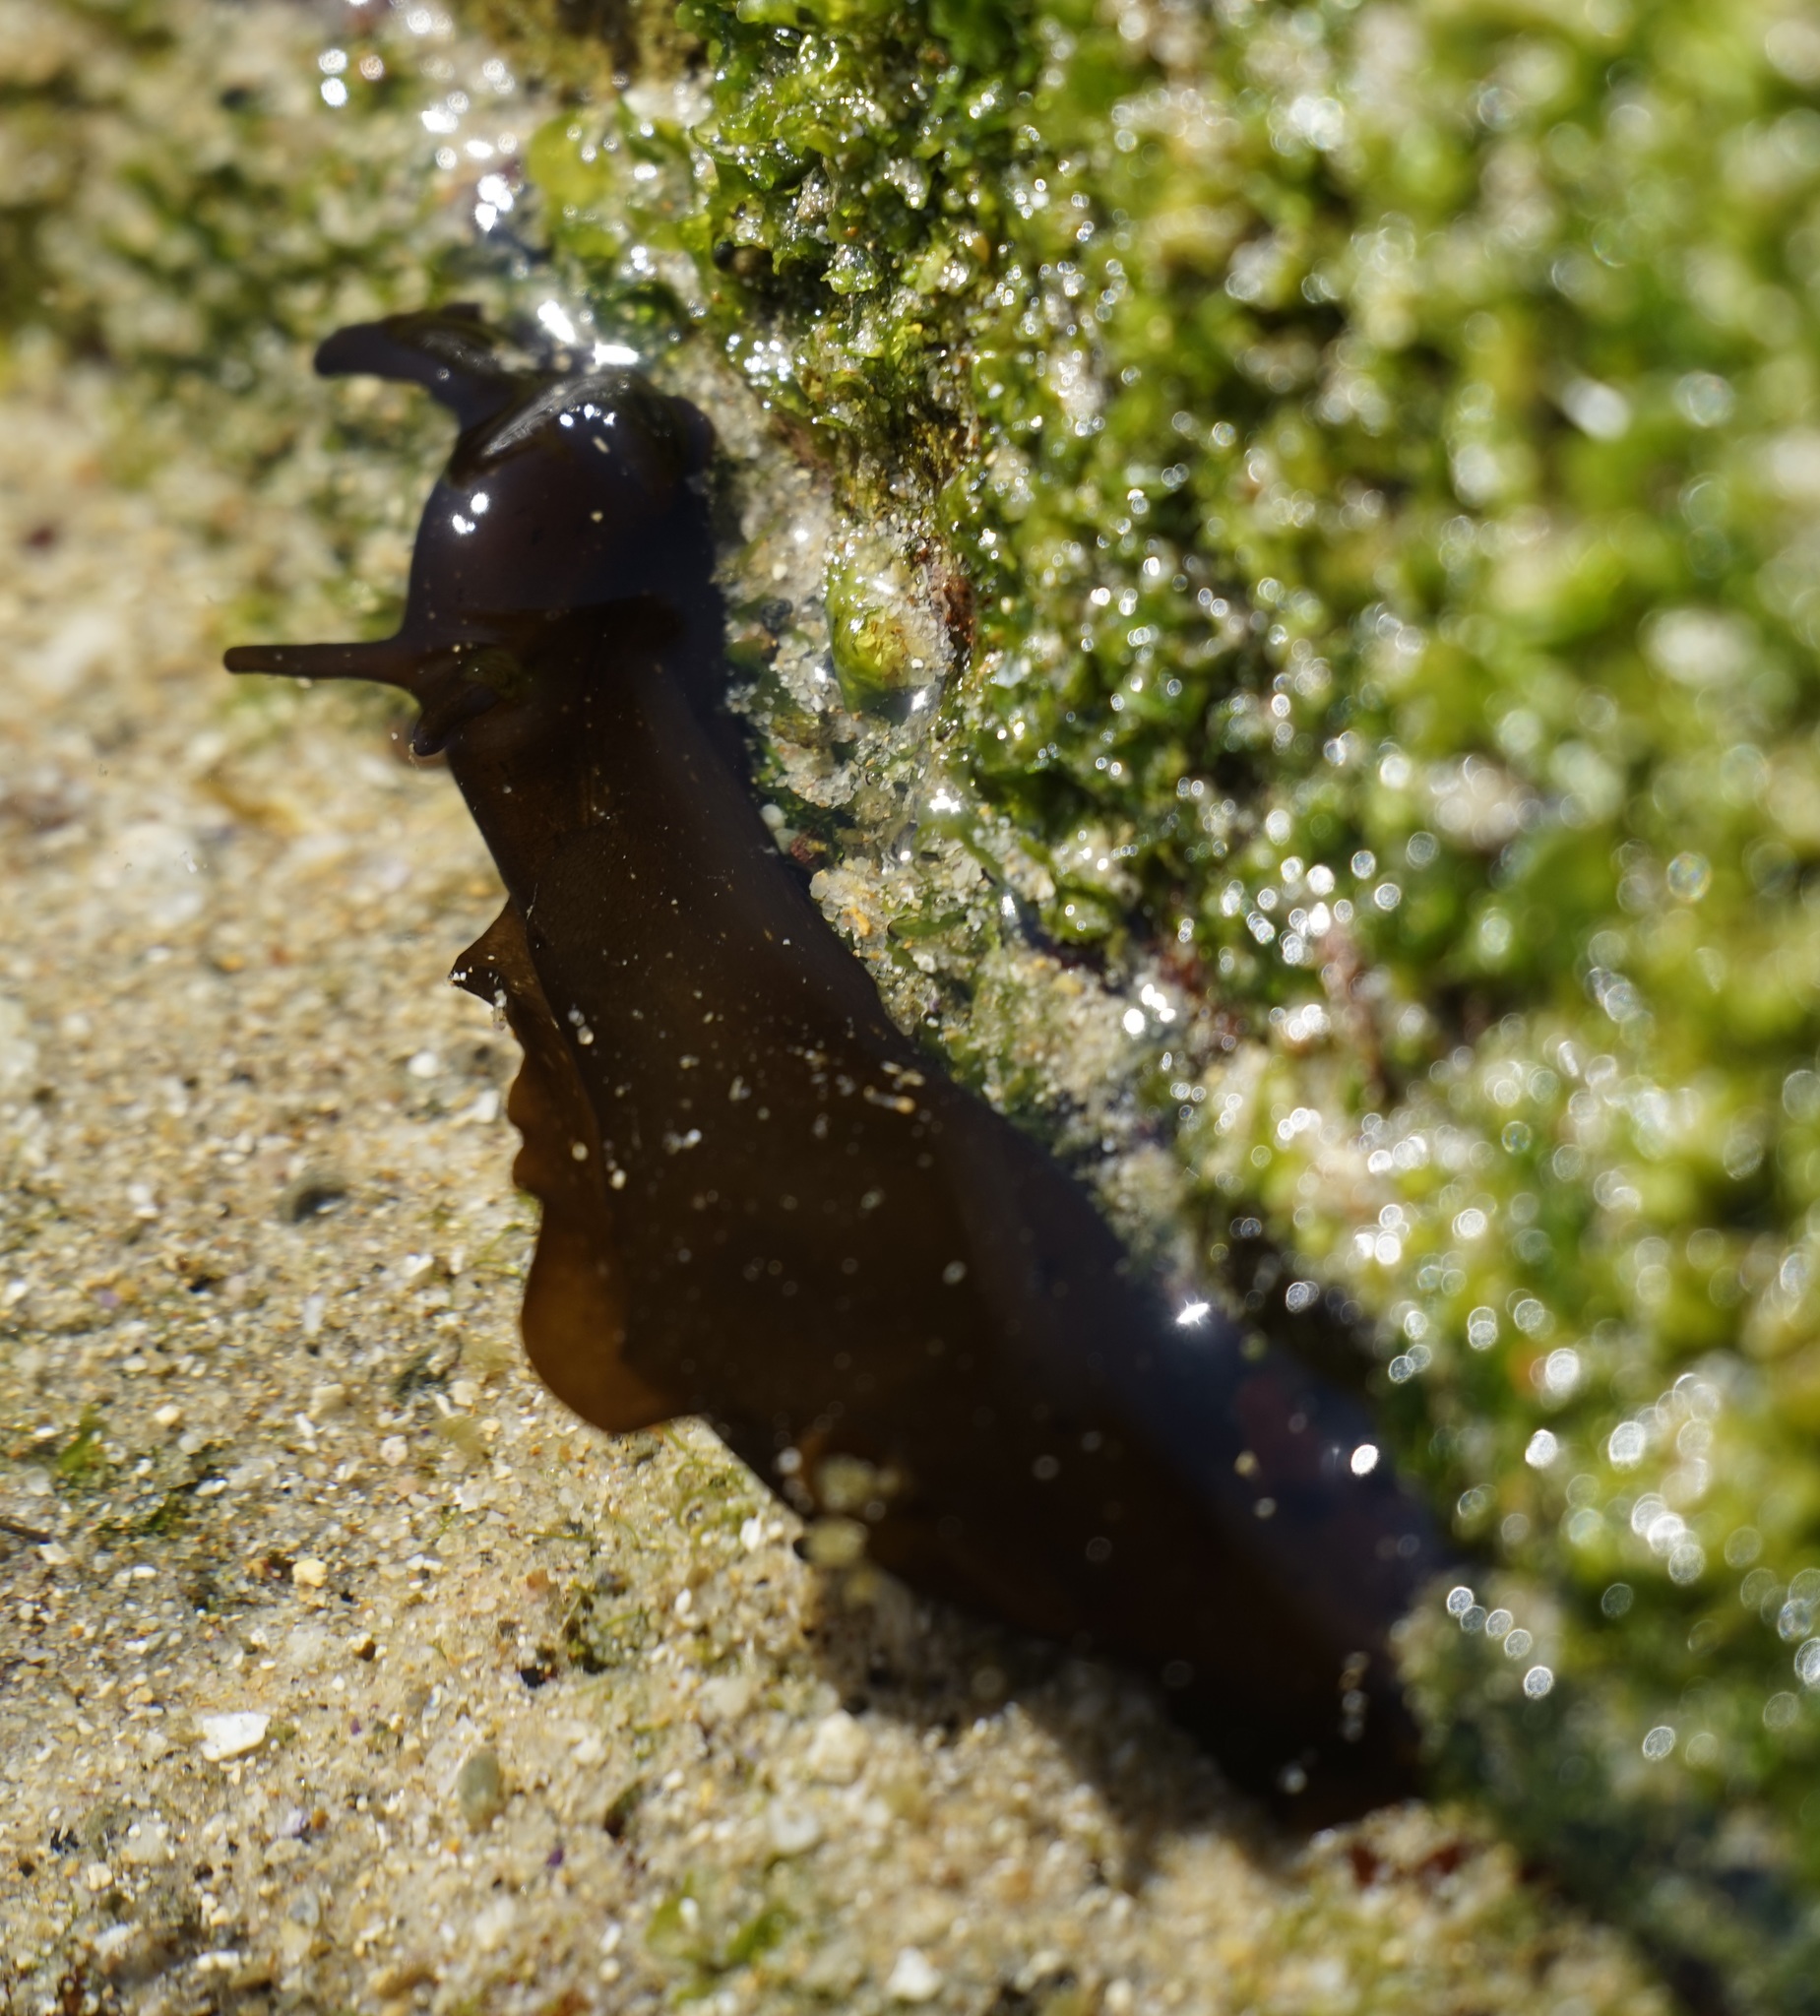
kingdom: Animalia
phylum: Mollusca
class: Gastropoda
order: Aplysiida
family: Aplysiidae
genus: Aplysia
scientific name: Aplysia juliana
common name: Walking sea hare
